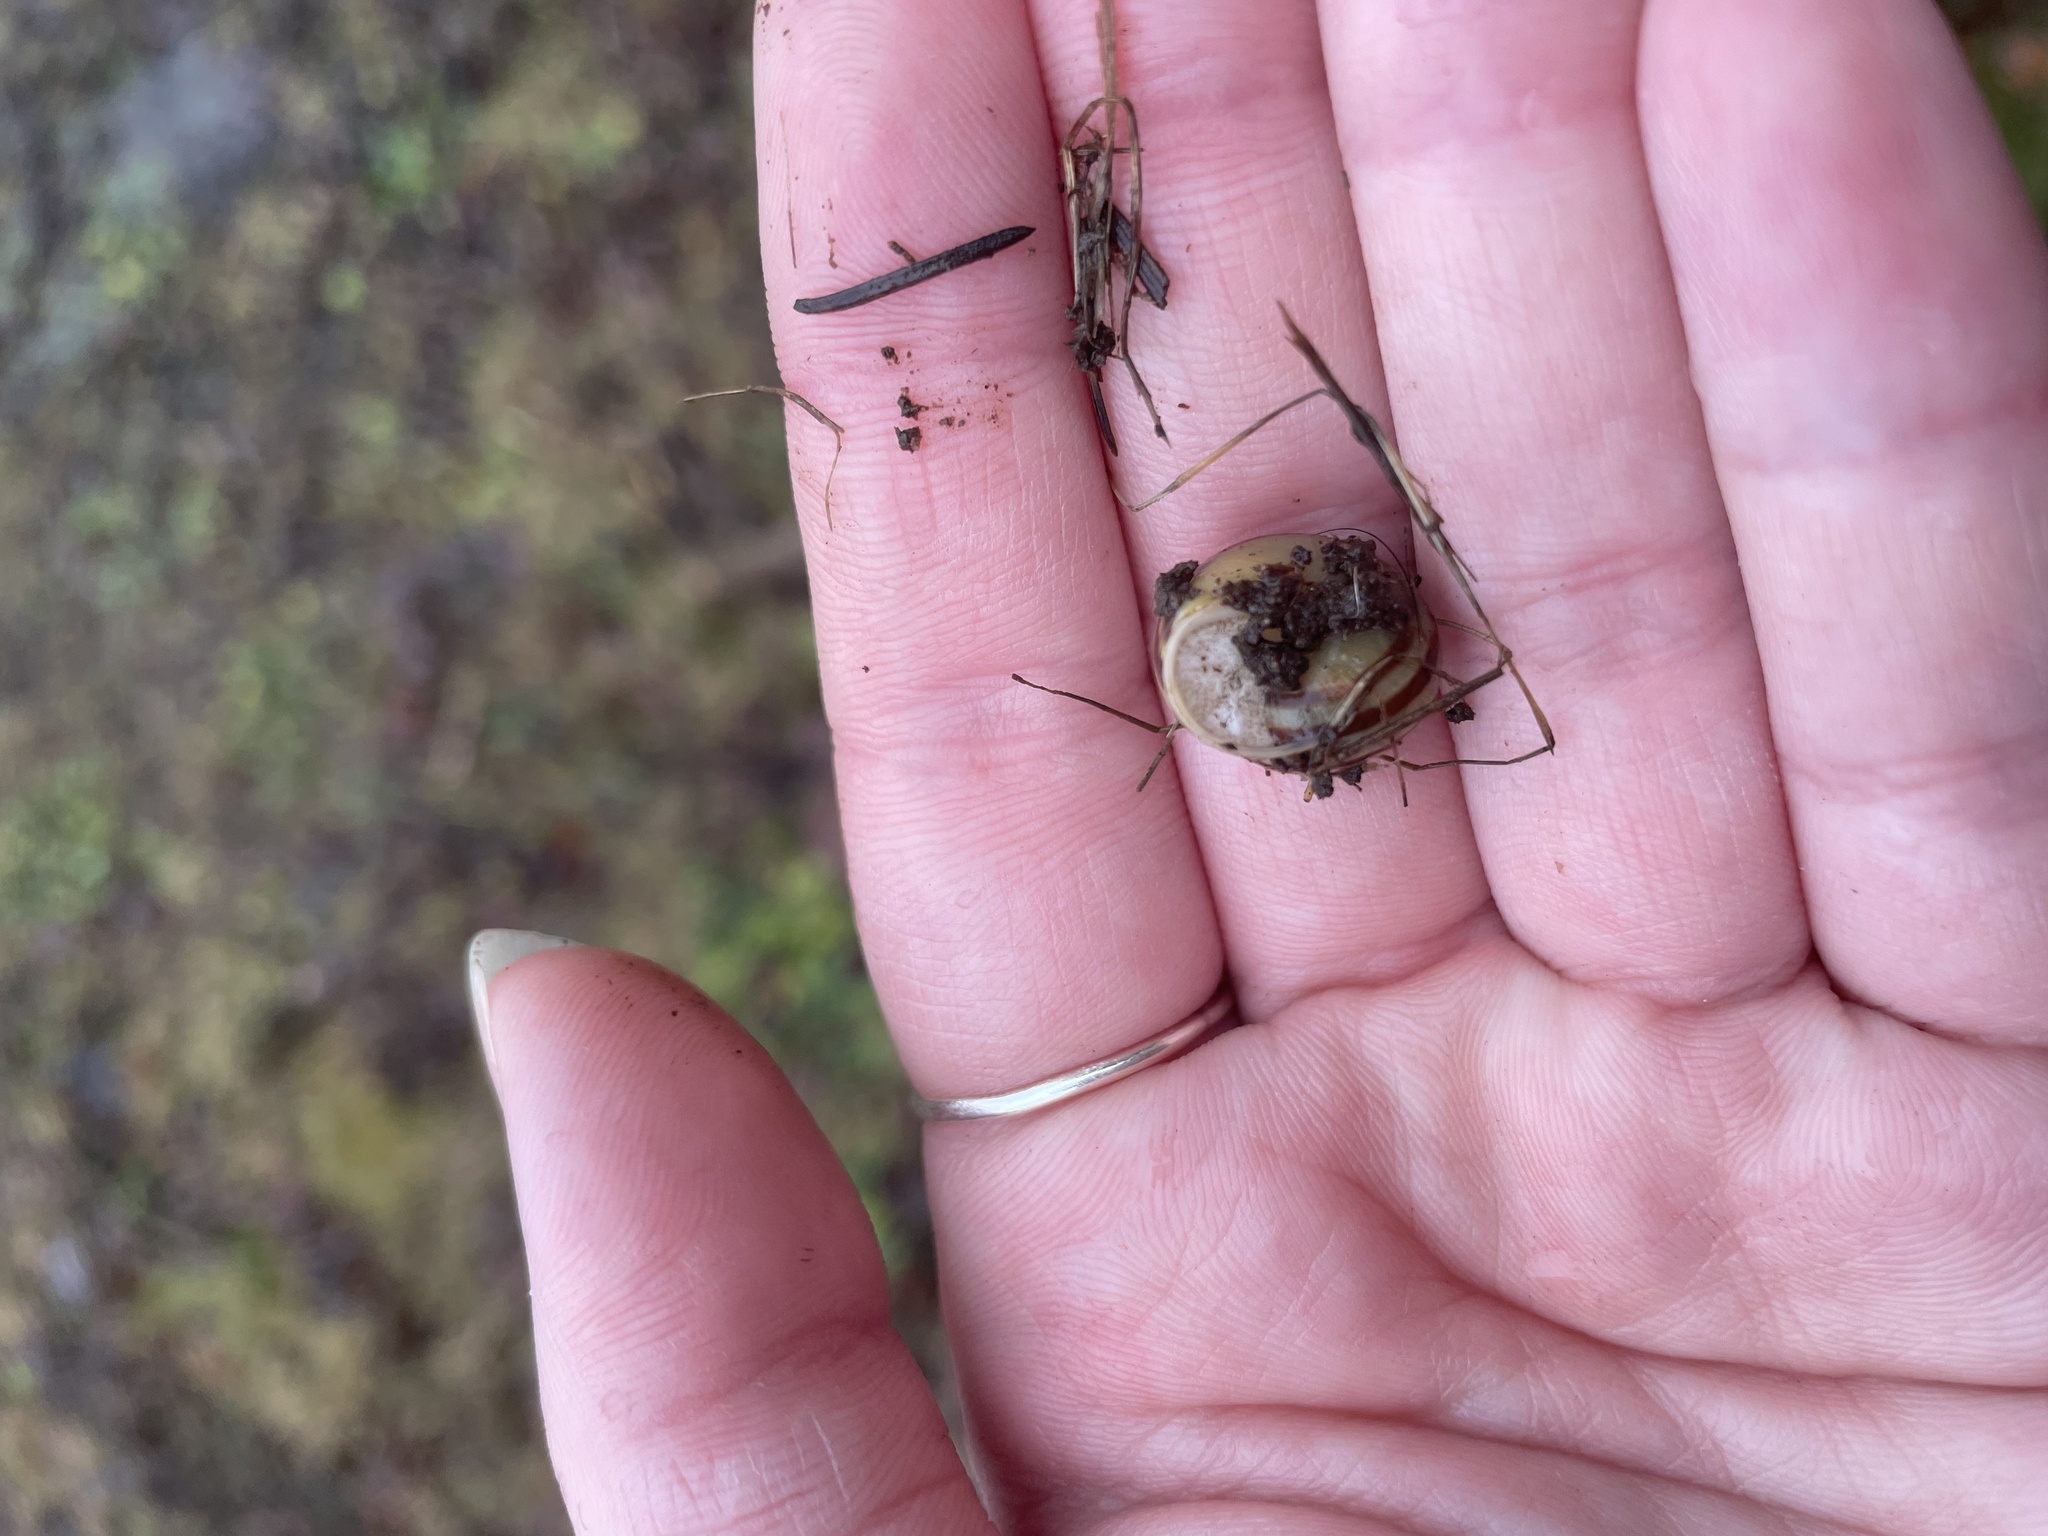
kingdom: Animalia
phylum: Mollusca
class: Gastropoda
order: Stylommatophora
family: Helicidae
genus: Cepaea
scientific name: Cepaea hortensis
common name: White-lip gardensnail
